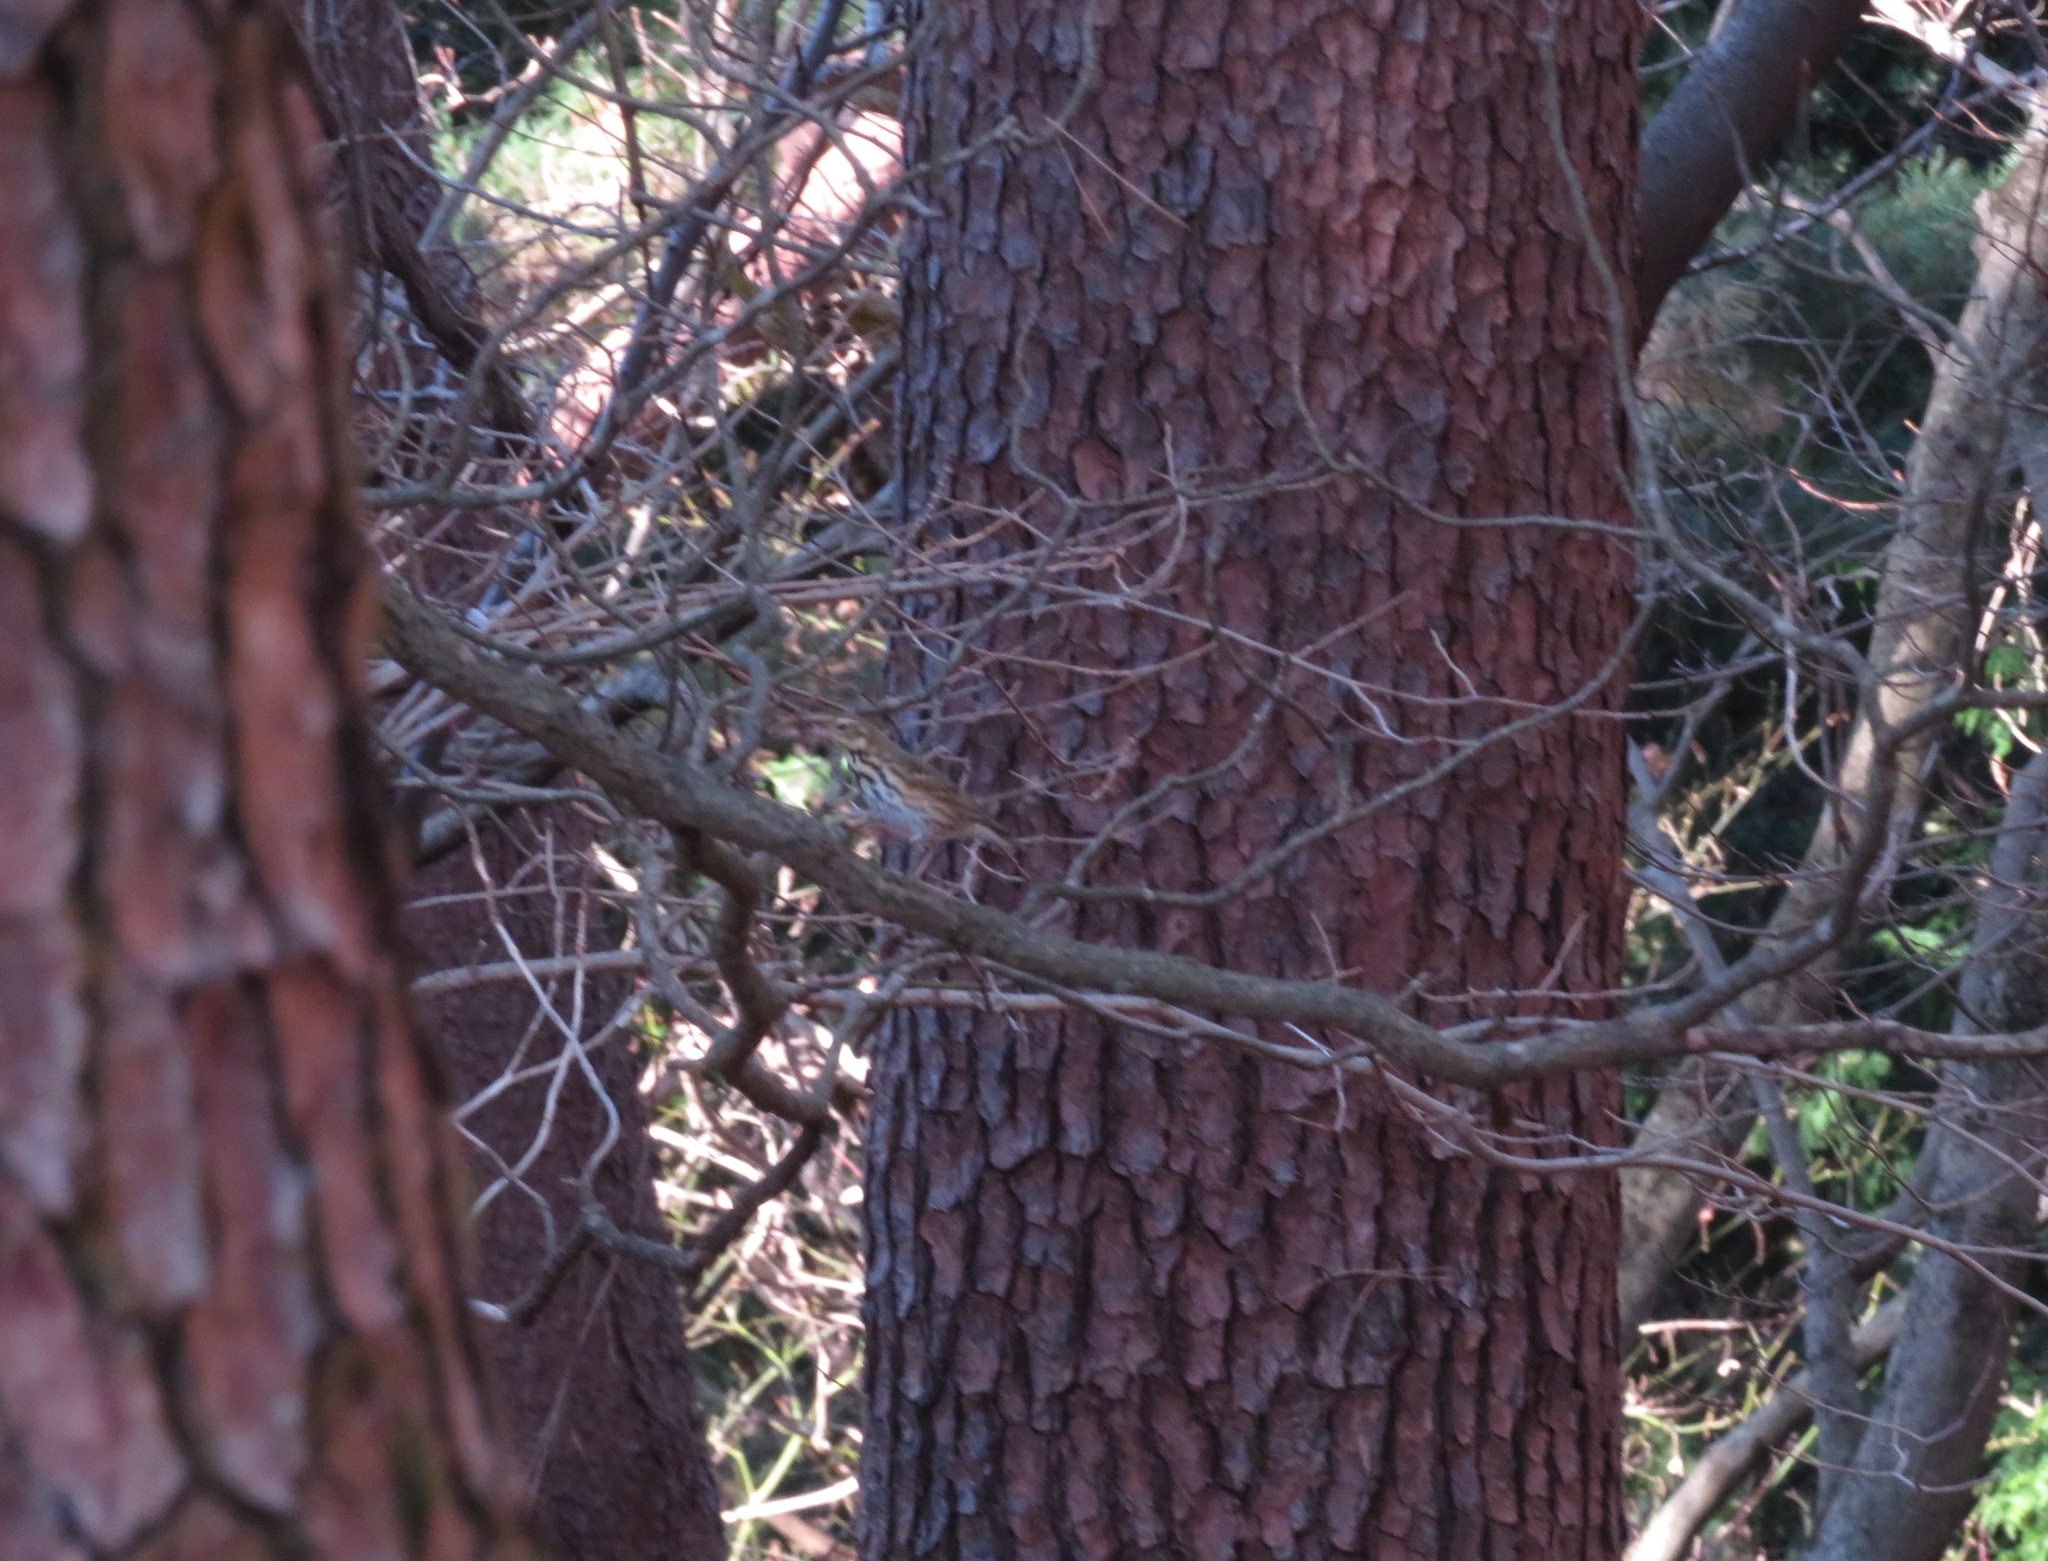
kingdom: Animalia
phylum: Chordata
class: Aves
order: Passeriformes
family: Motacillidae
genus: Anthus
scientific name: Anthus hodgsoni
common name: Olive-backed pipit
